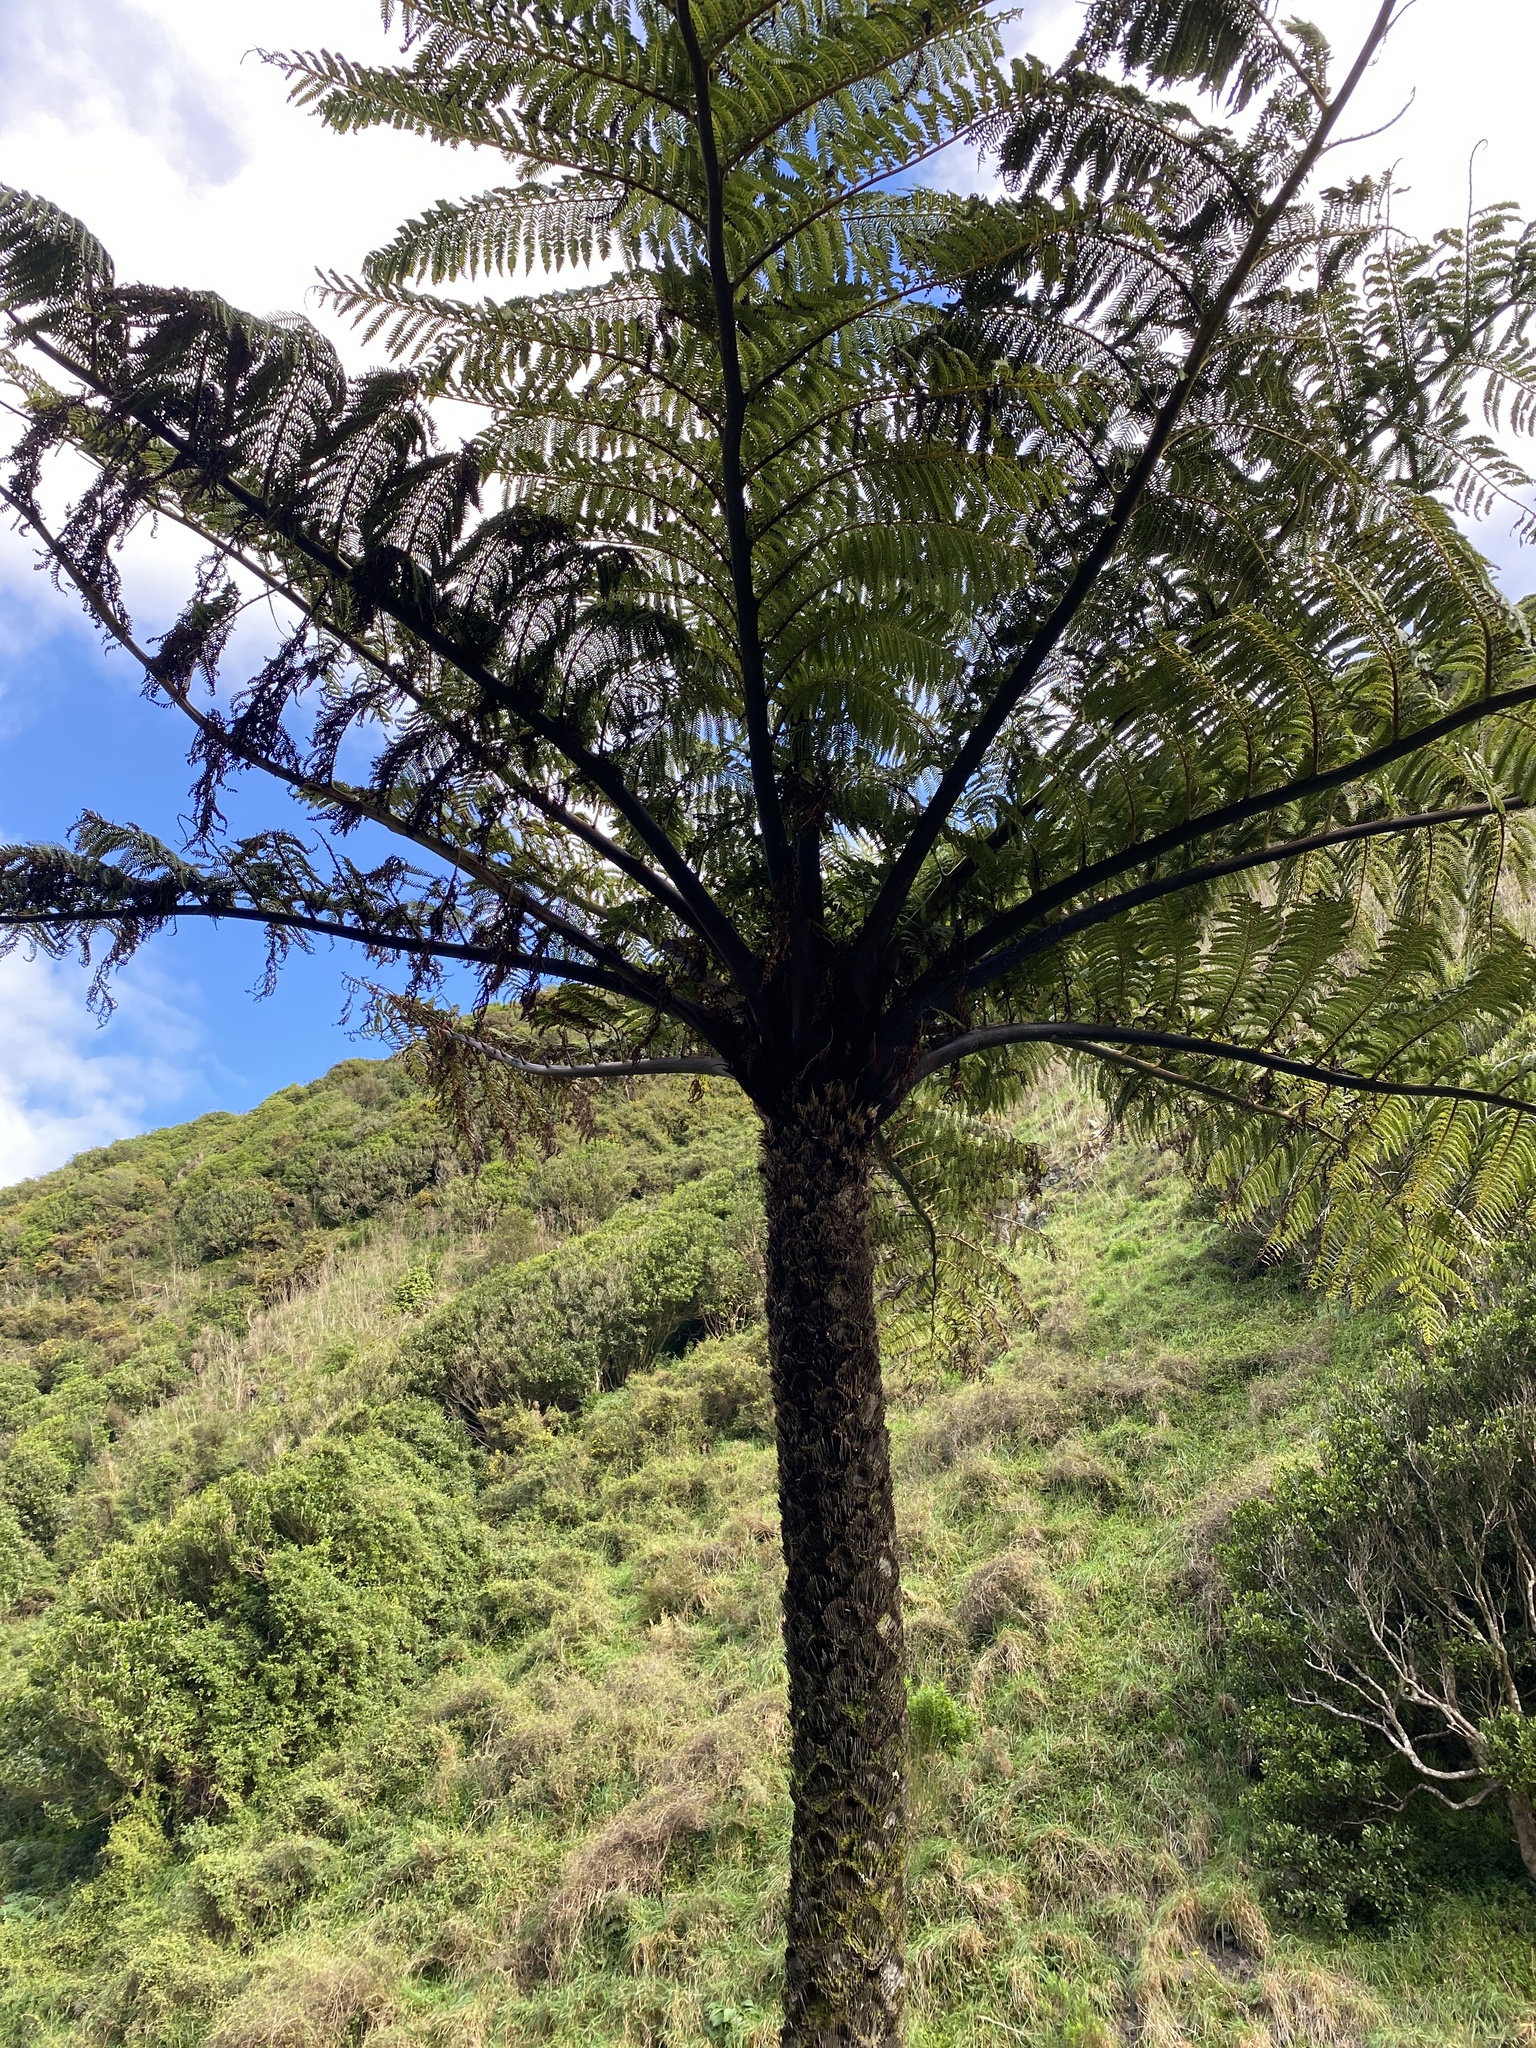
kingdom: Plantae
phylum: Tracheophyta
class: Polypodiopsida
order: Cyatheales
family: Cyatheaceae
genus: Sphaeropteris
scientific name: Sphaeropteris medullaris
